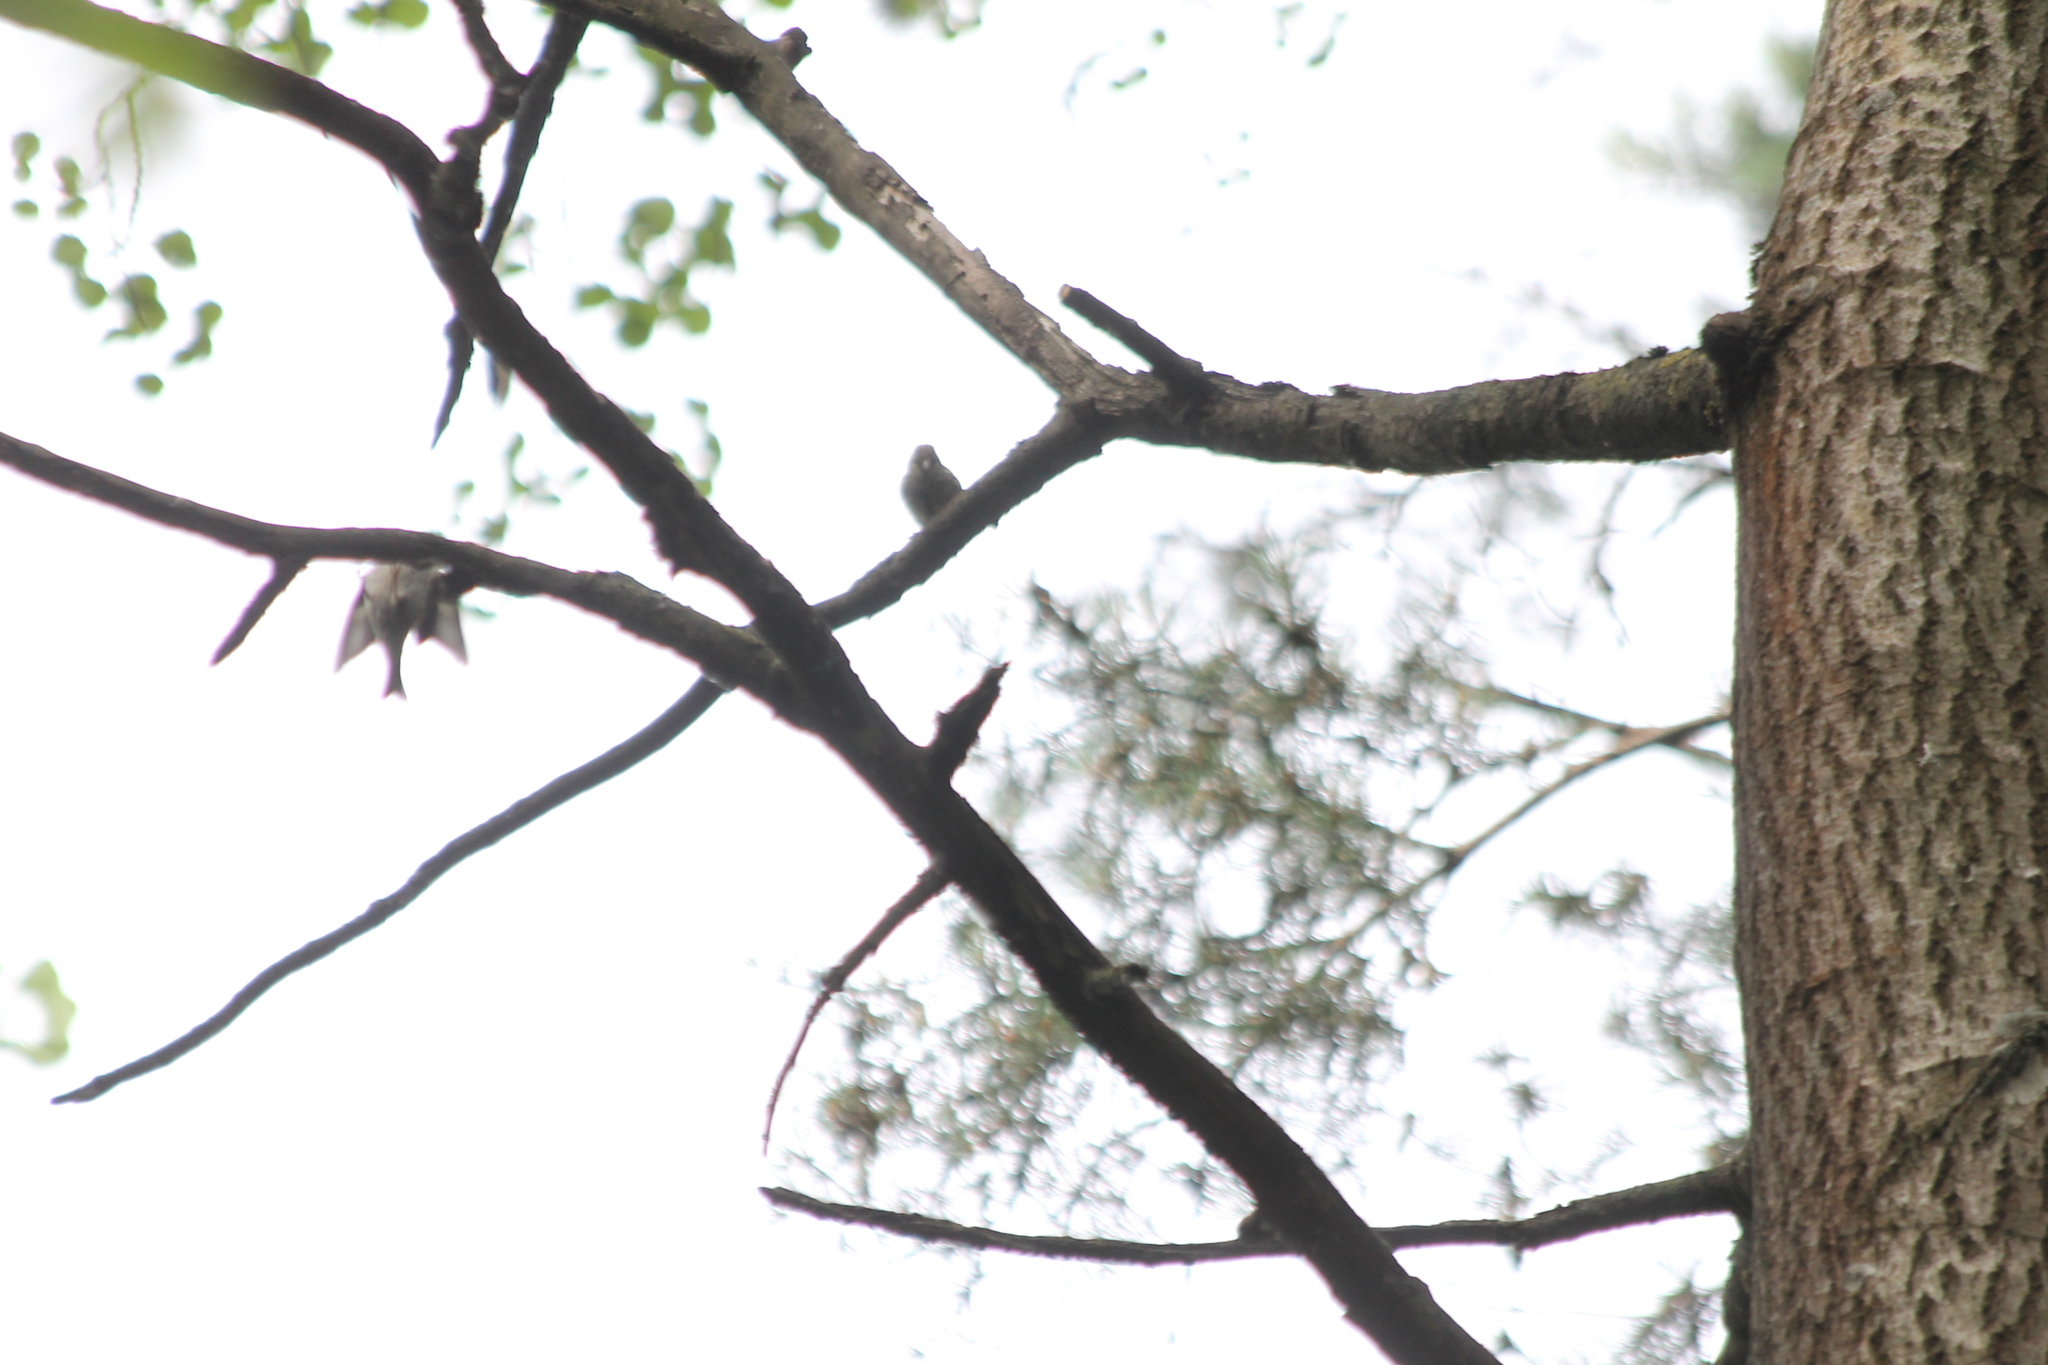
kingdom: Animalia
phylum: Chordata
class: Aves
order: Passeriformes
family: Fringillidae
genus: Spinus
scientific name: Spinus spinus
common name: Eurasian siskin
